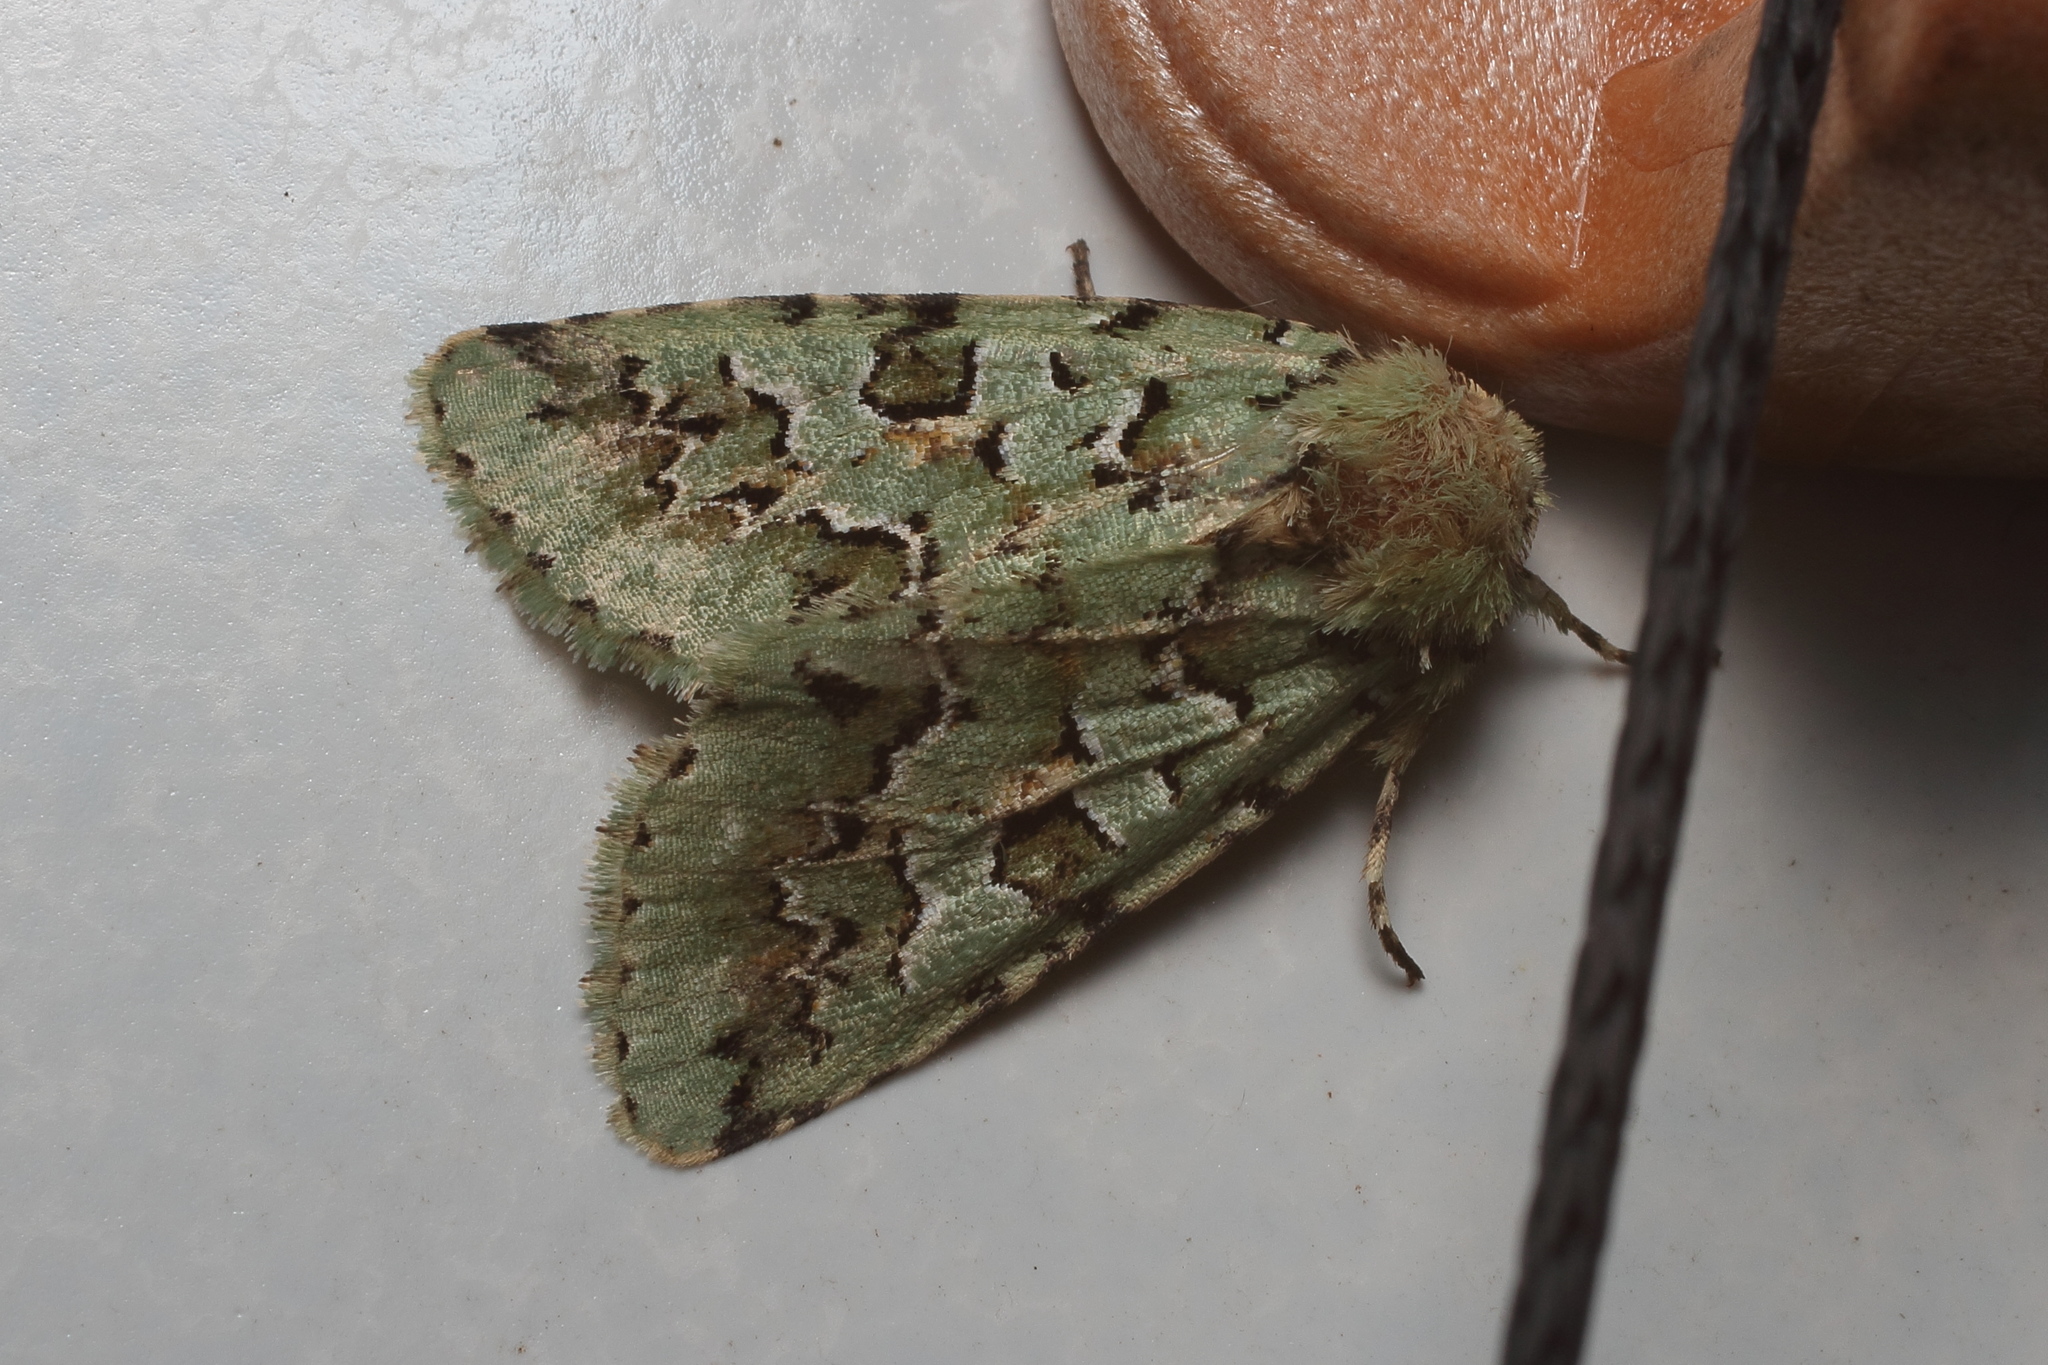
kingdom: Animalia
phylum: Arthropoda
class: Insecta
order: Lepidoptera
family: Noctuidae
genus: Daseochaeta
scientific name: Daseochaeta viridis
